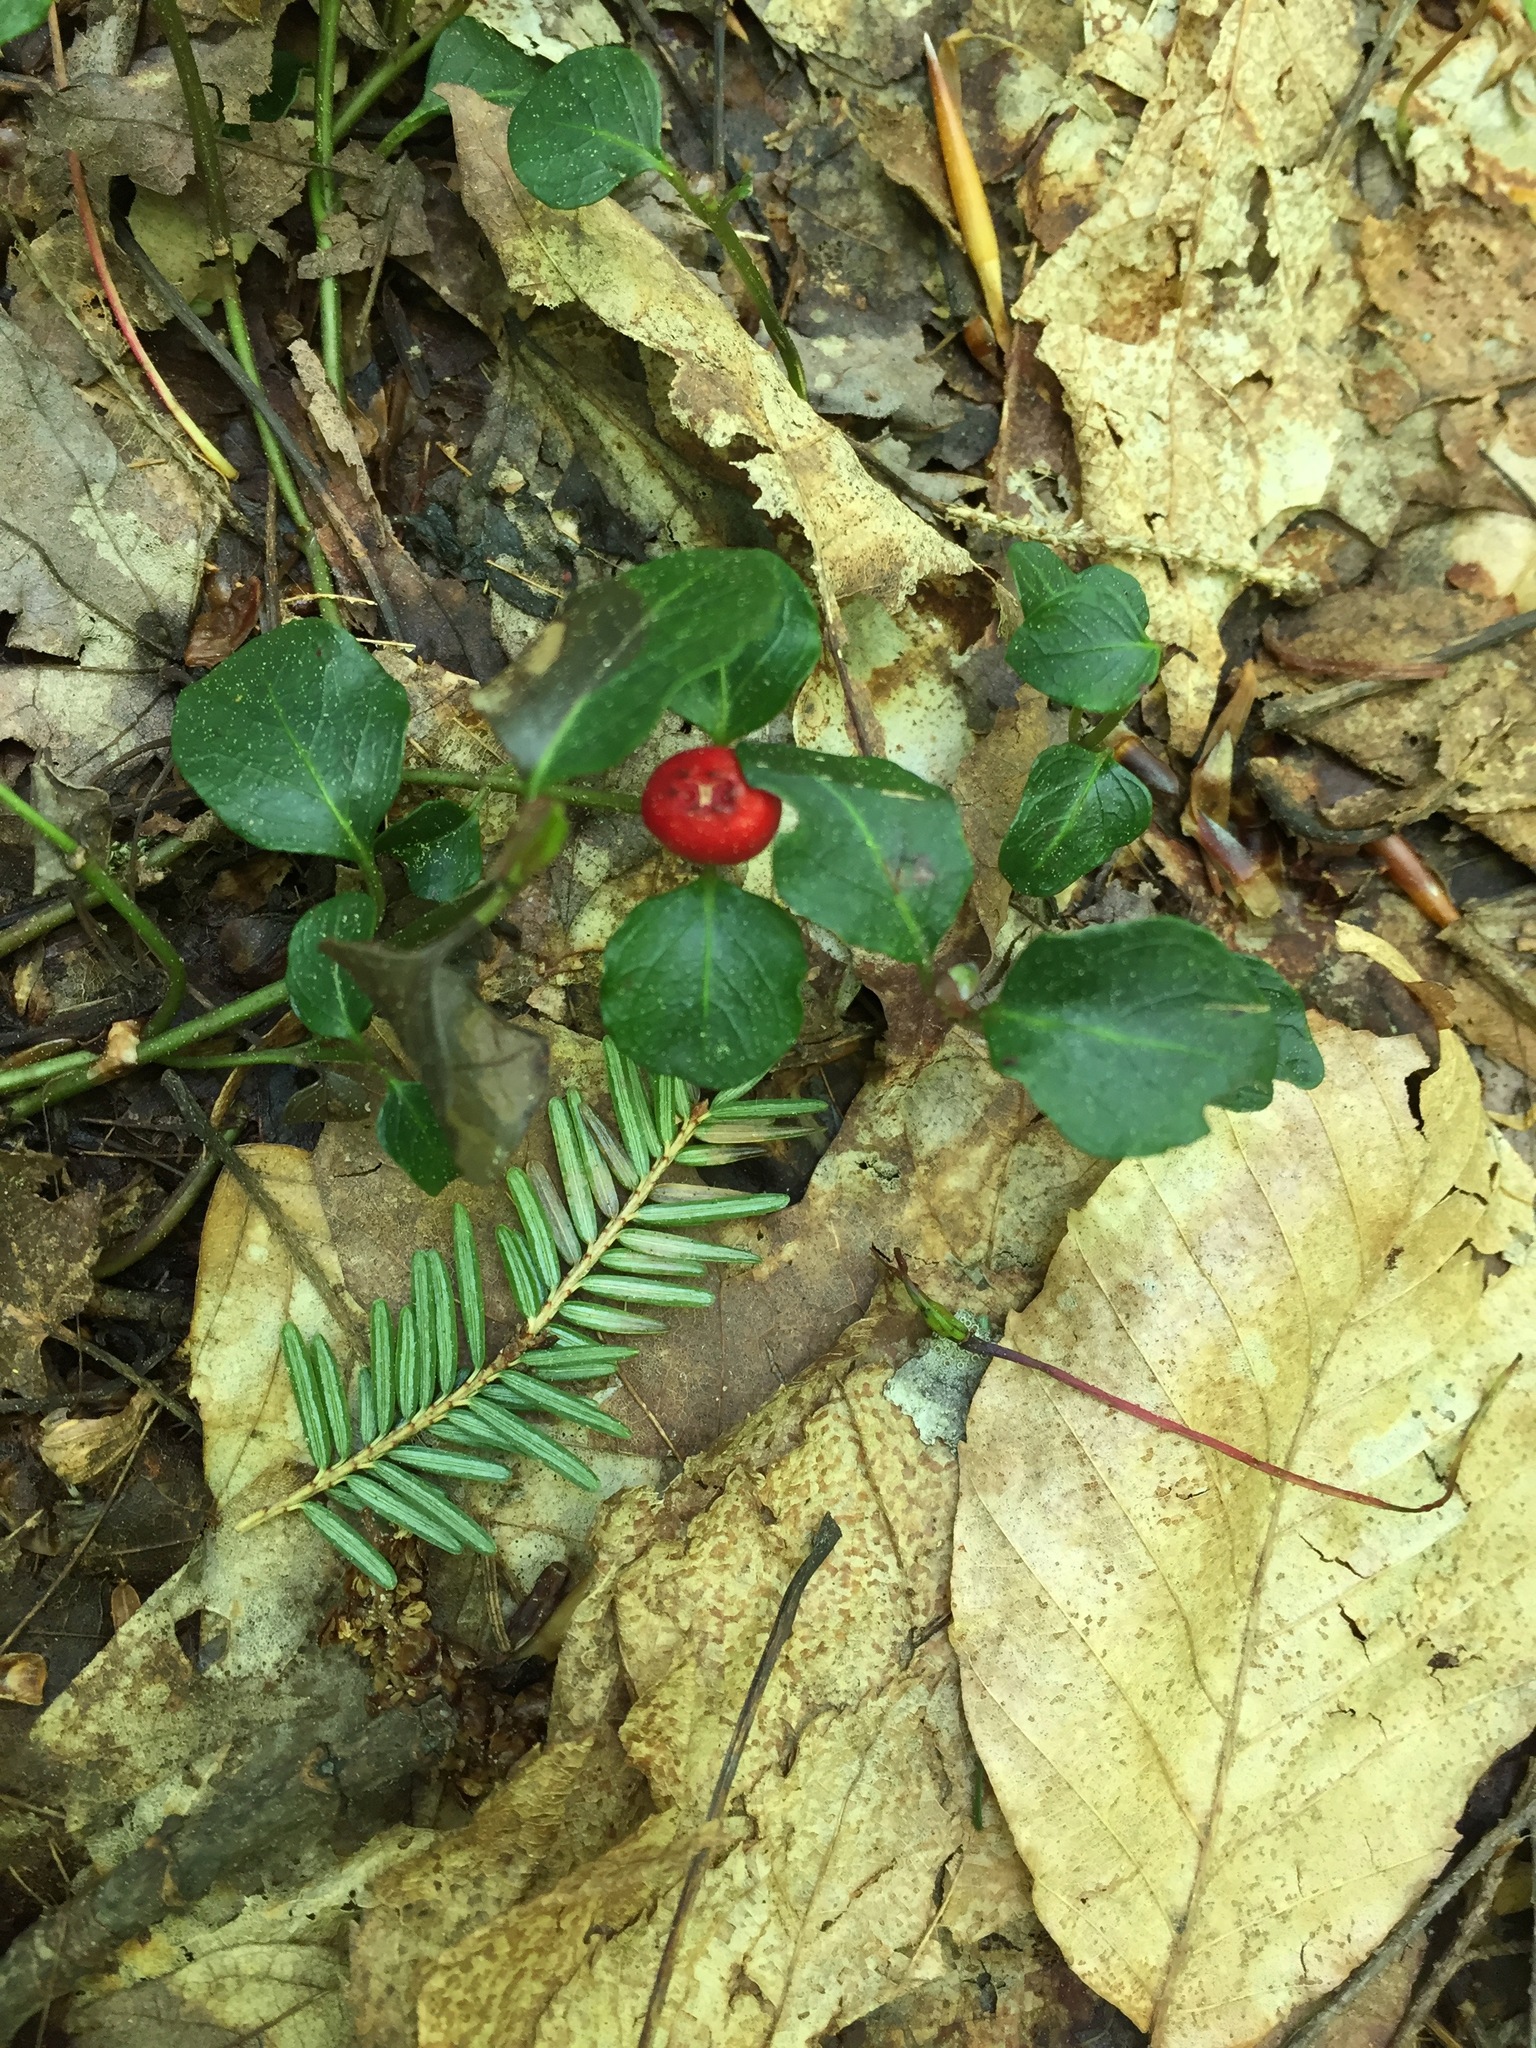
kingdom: Plantae
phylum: Tracheophyta
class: Magnoliopsida
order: Gentianales
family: Rubiaceae
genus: Mitchella
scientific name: Mitchella repens
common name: Partridge-berry
